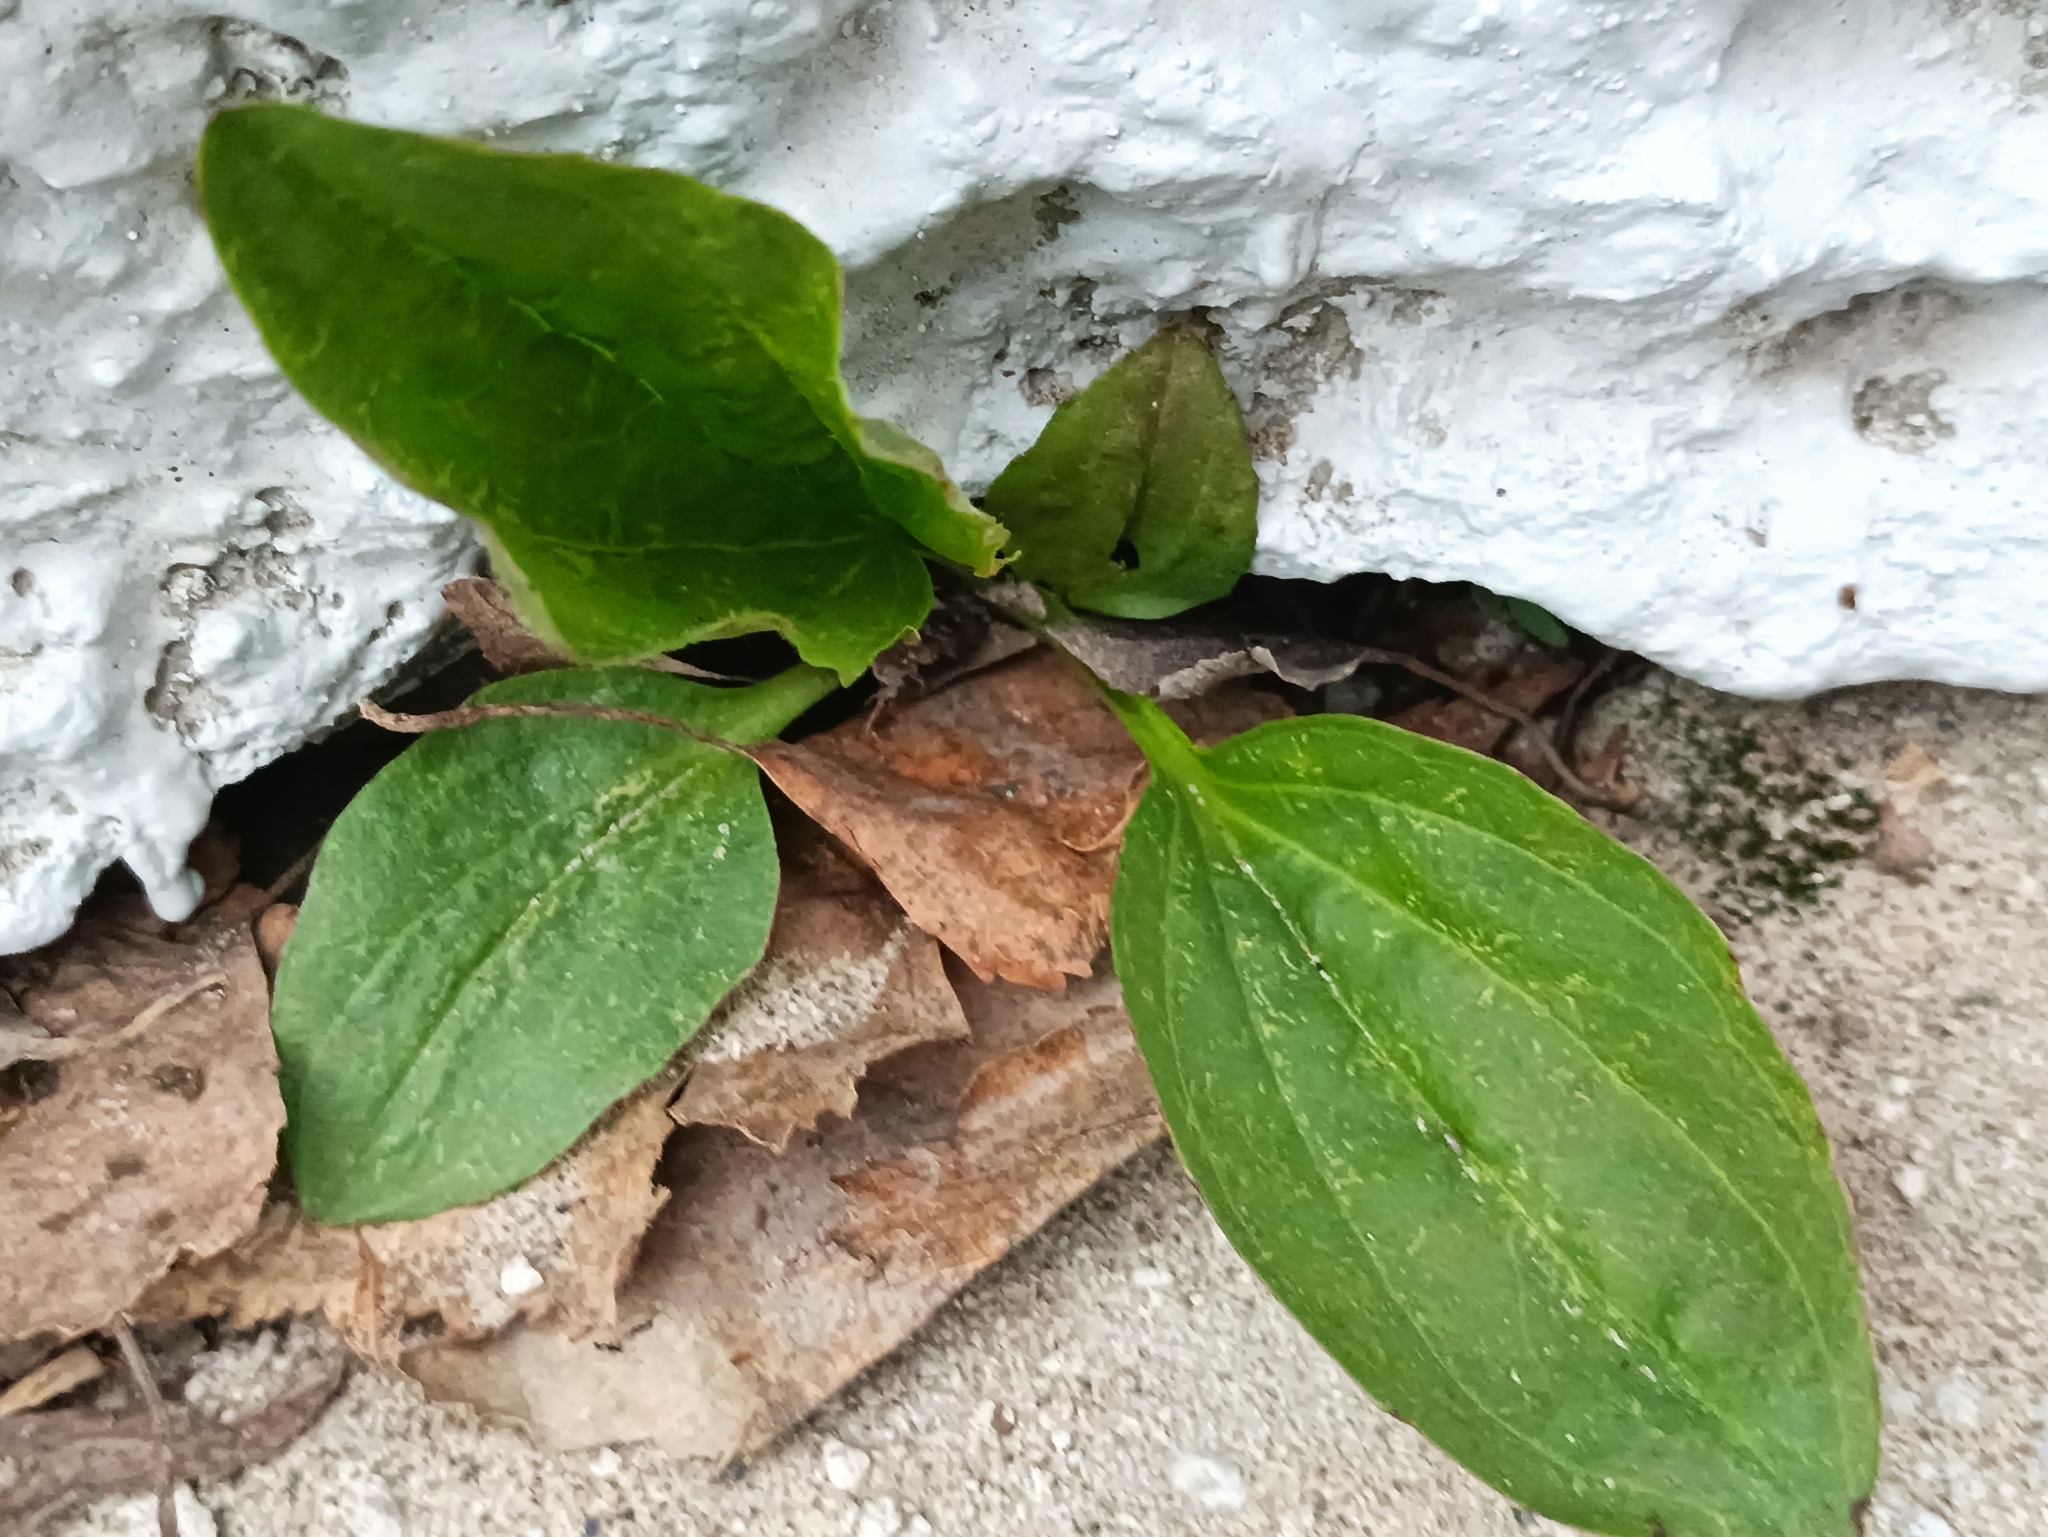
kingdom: Plantae
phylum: Tracheophyta
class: Magnoliopsida
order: Lamiales
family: Plantaginaceae
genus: Plantago
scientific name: Plantago major
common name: Common plantain
